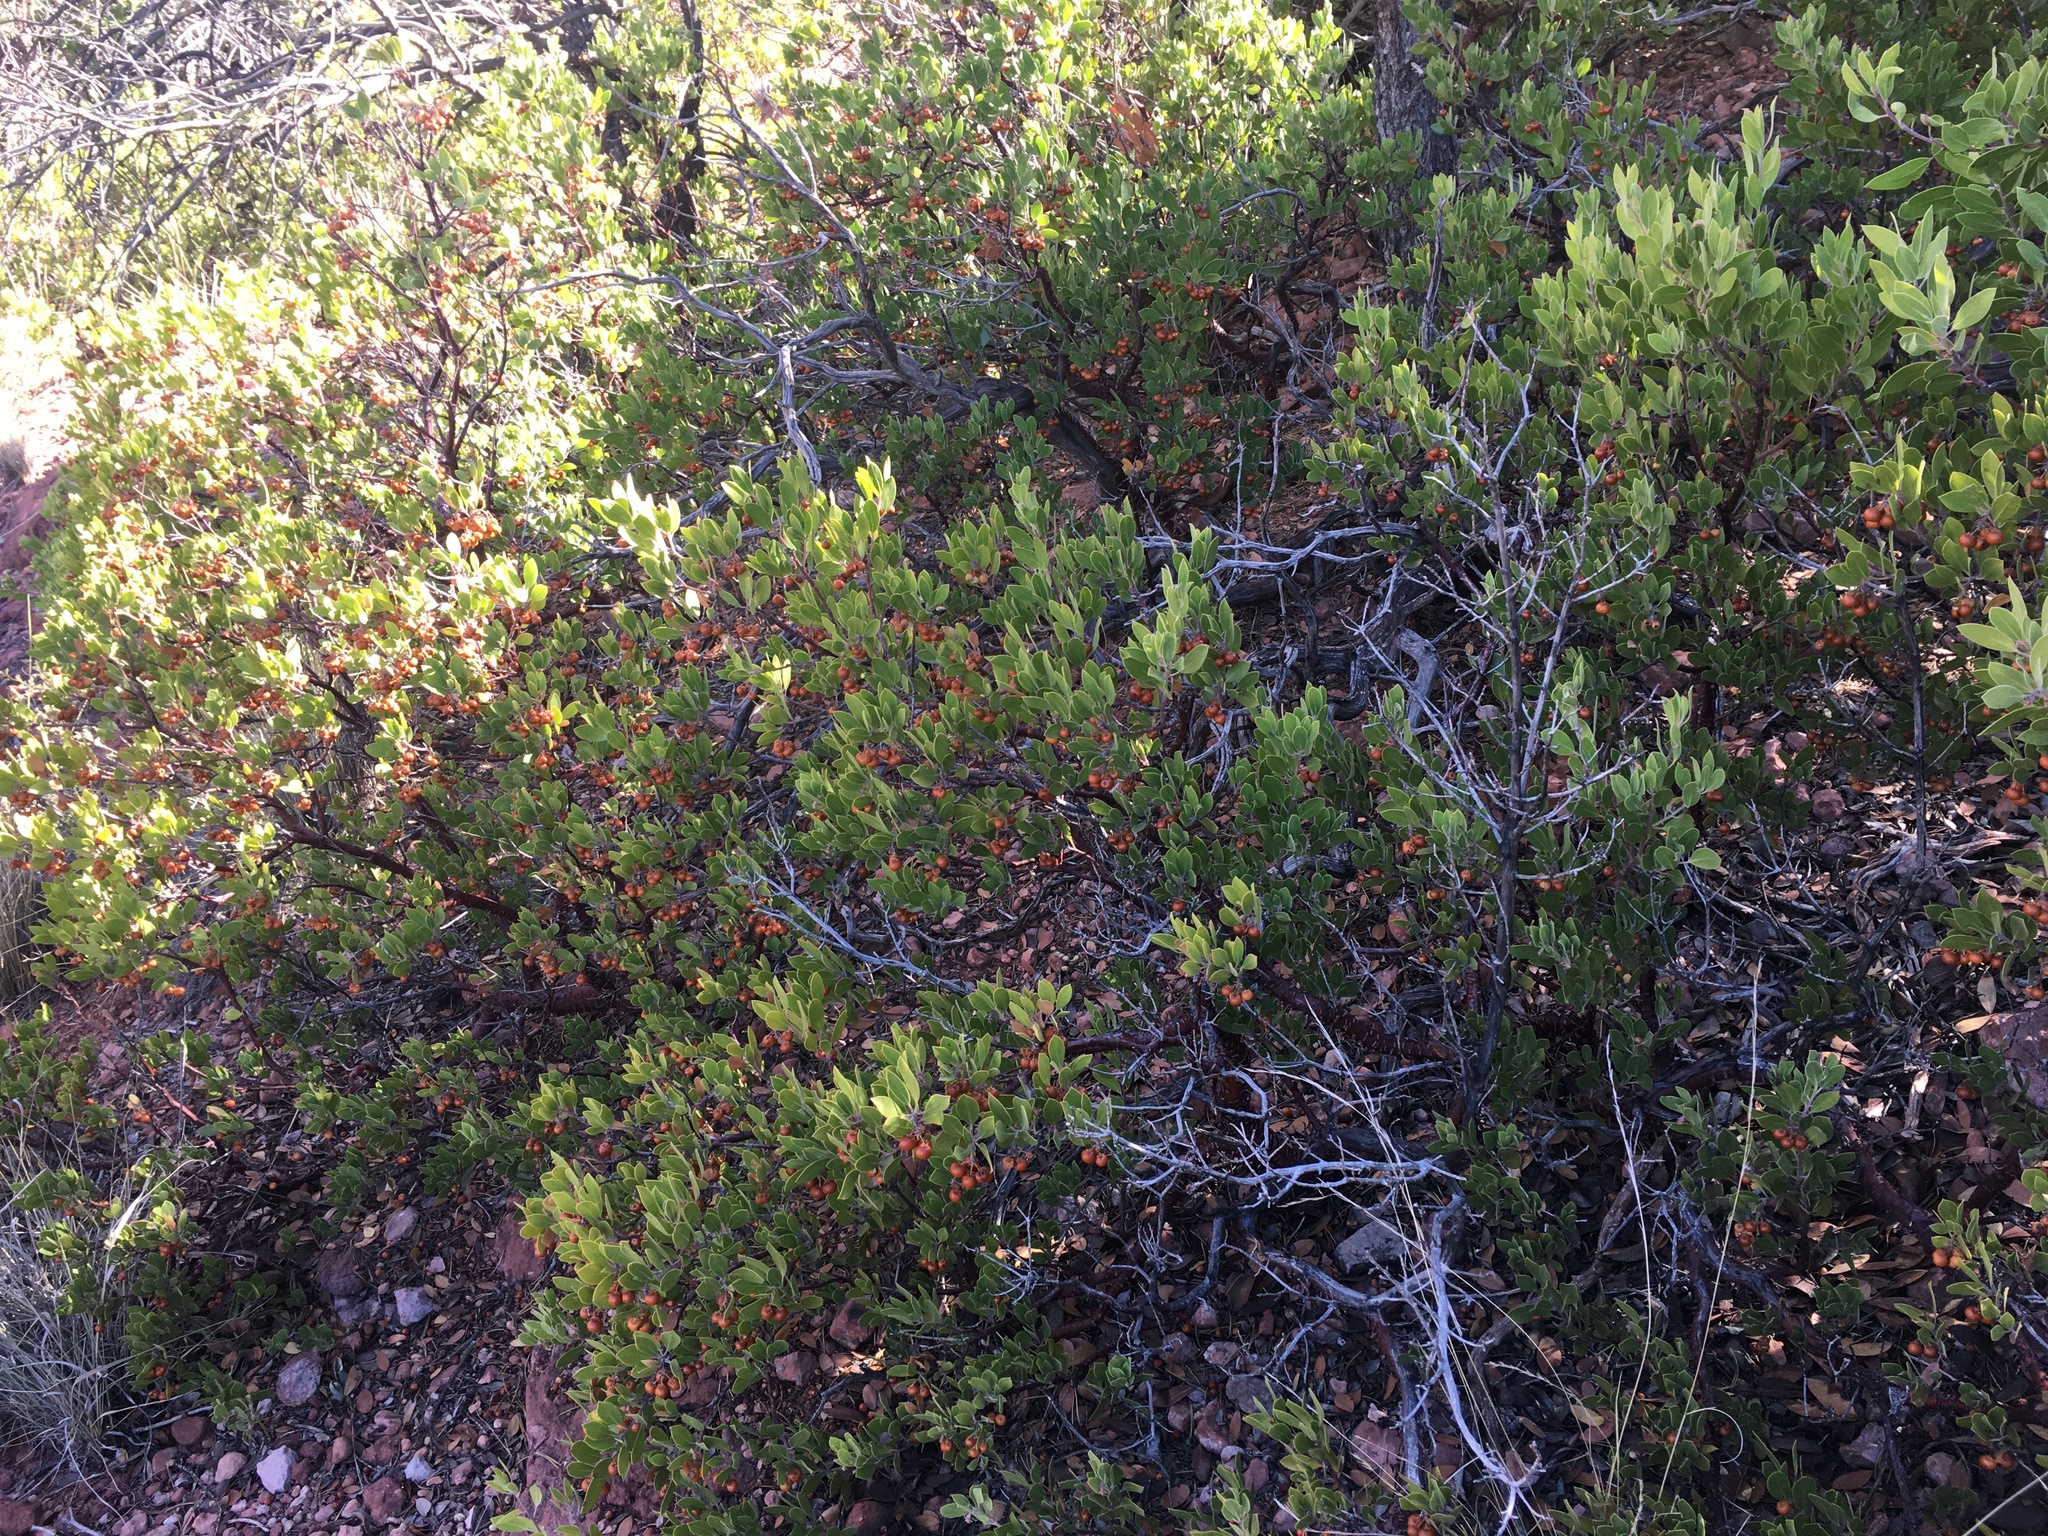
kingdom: Plantae
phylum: Tracheophyta
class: Magnoliopsida
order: Ericales
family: Ericaceae
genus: Arctostaphylos
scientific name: Arctostaphylos pungens
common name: Mexican manzanita
